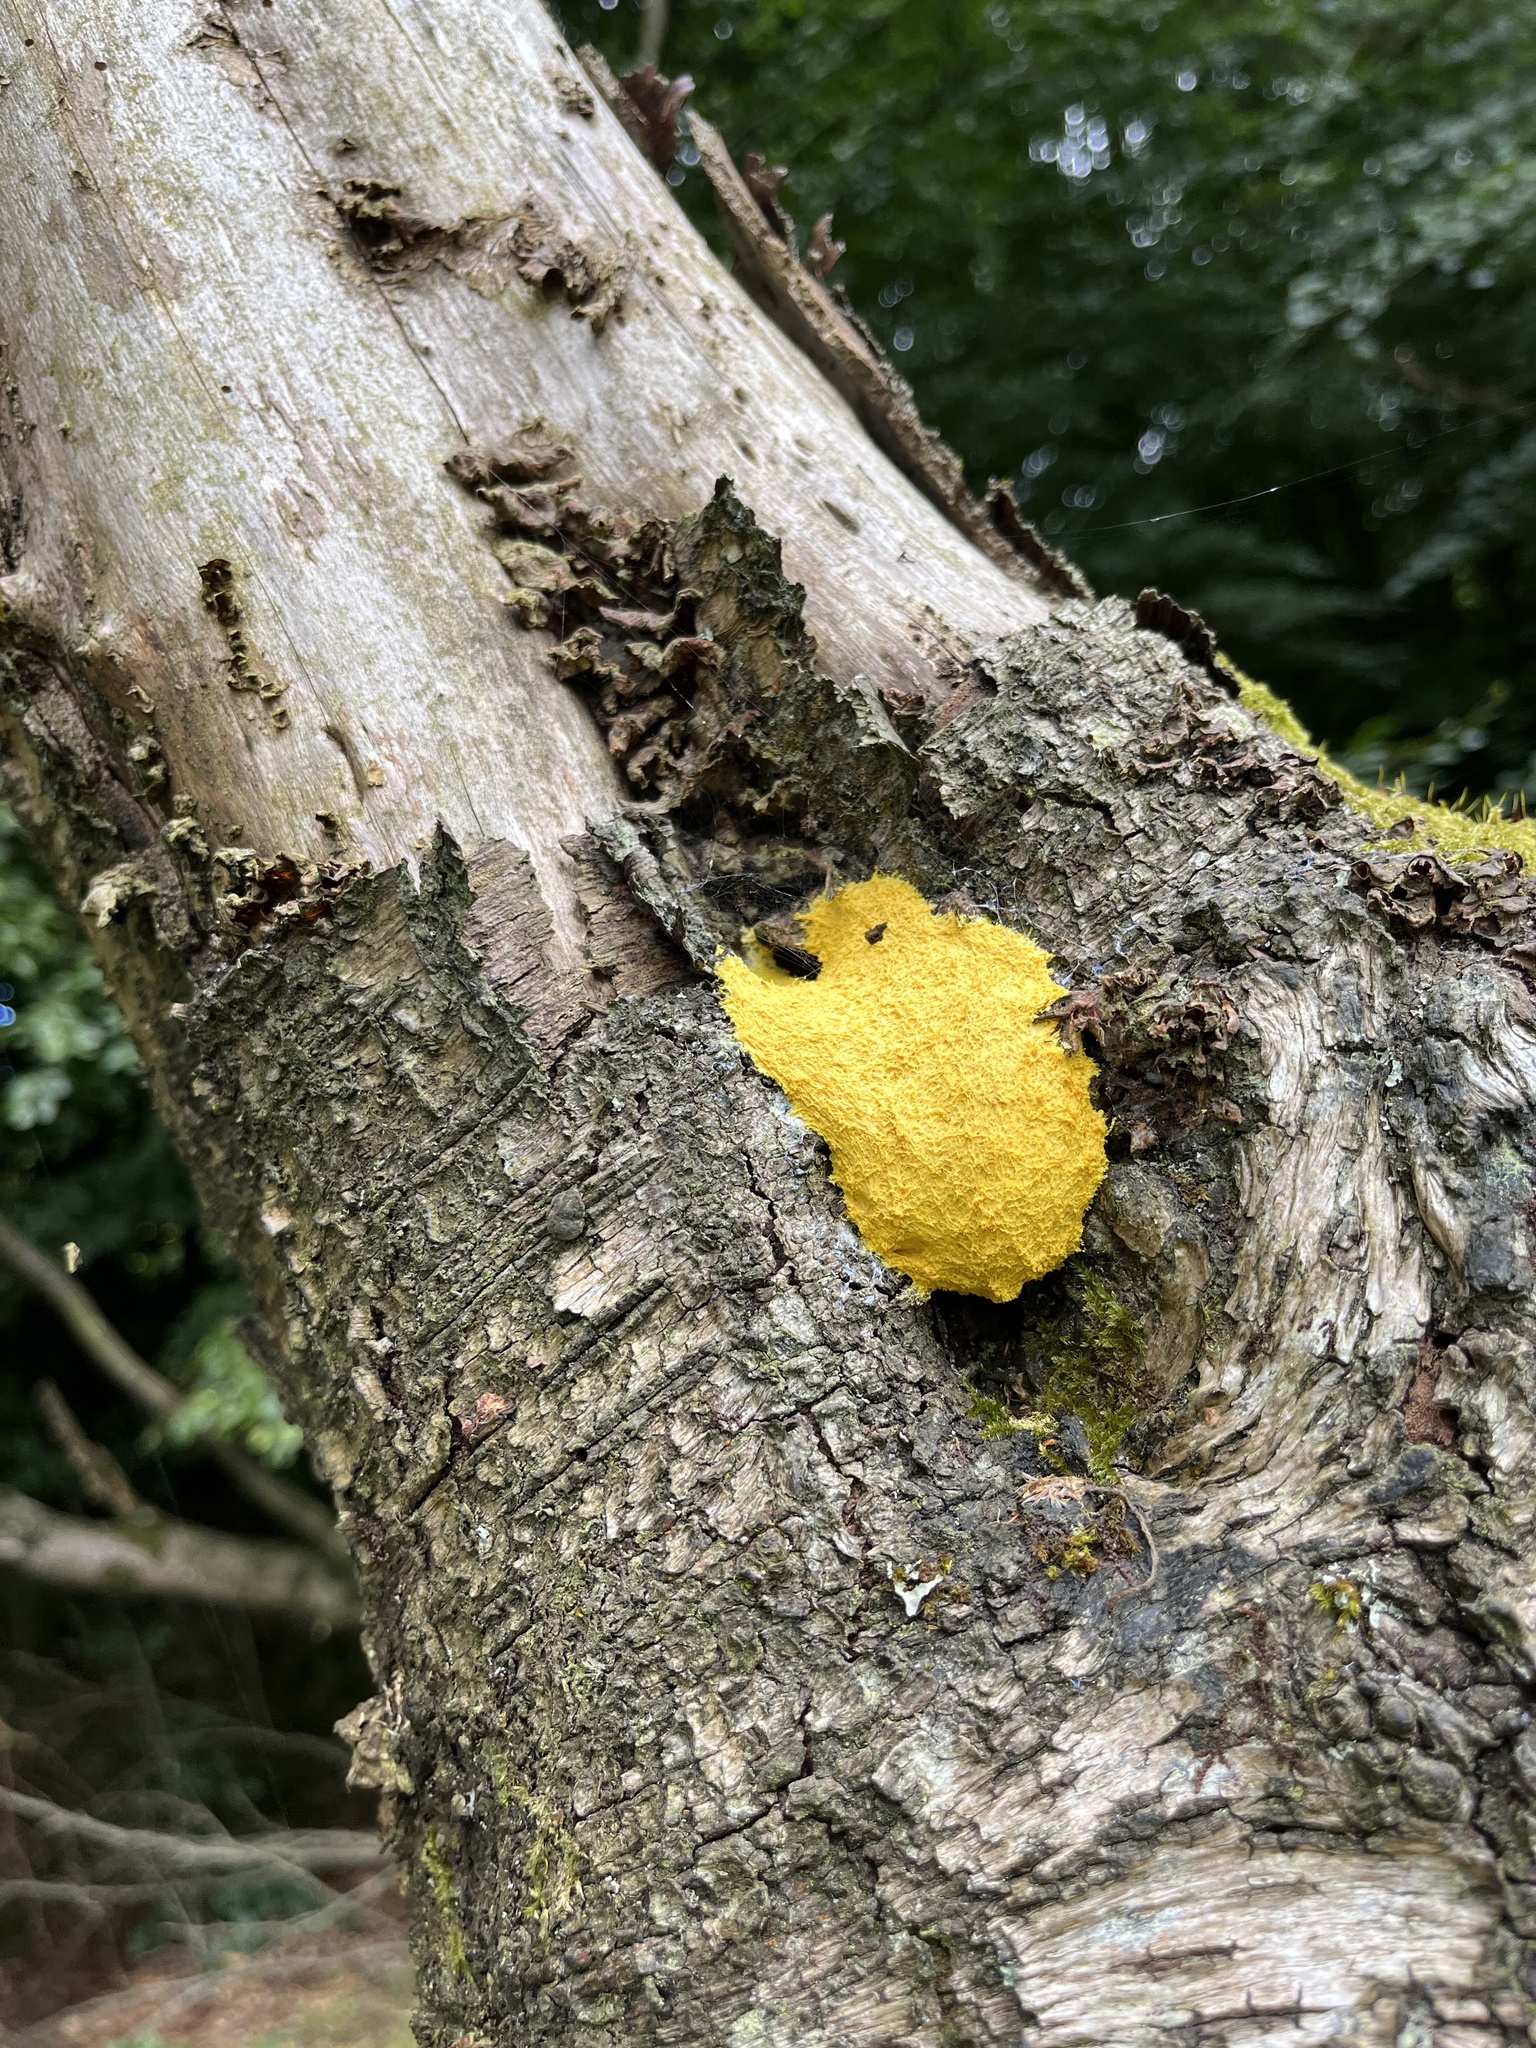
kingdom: Protozoa
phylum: Mycetozoa
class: Myxomycetes
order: Physarales
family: Physaraceae
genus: Fuligo
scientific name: Fuligo septica
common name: Dog vomit slime mold
